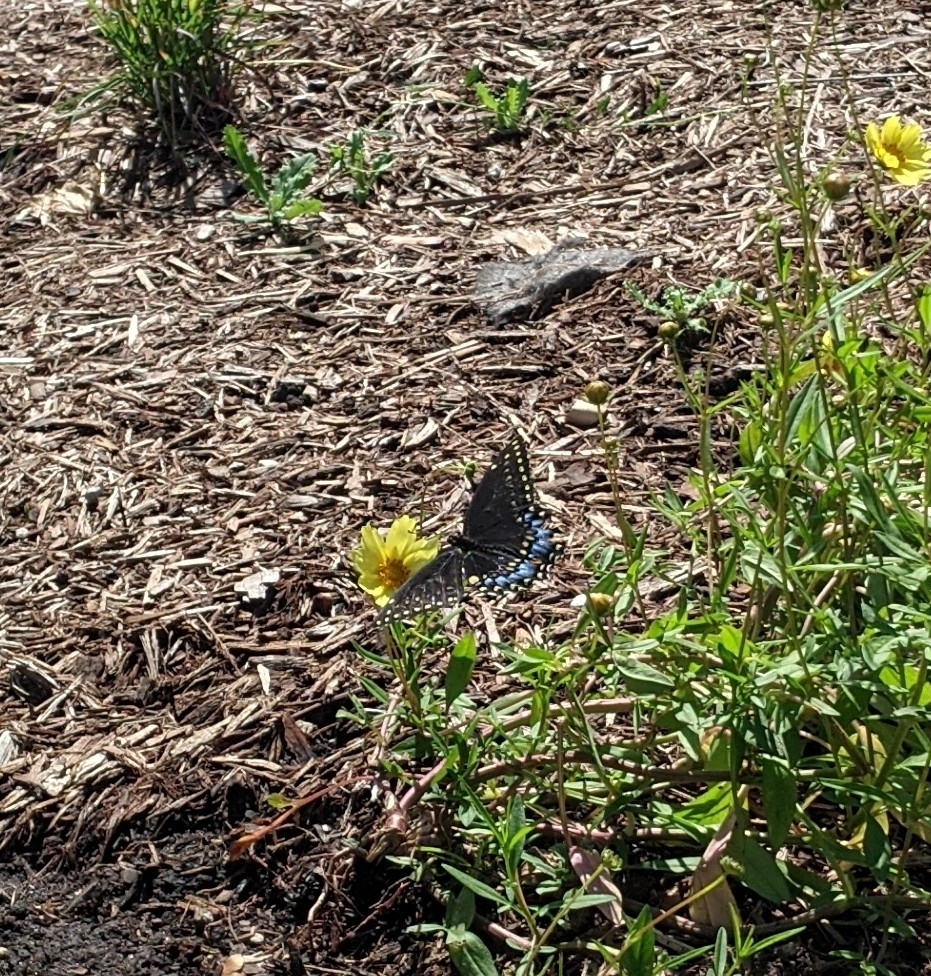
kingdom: Animalia
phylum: Arthropoda
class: Insecta
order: Lepidoptera
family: Papilionidae
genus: Papilio
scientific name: Papilio polyxenes
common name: Black swallowtail
